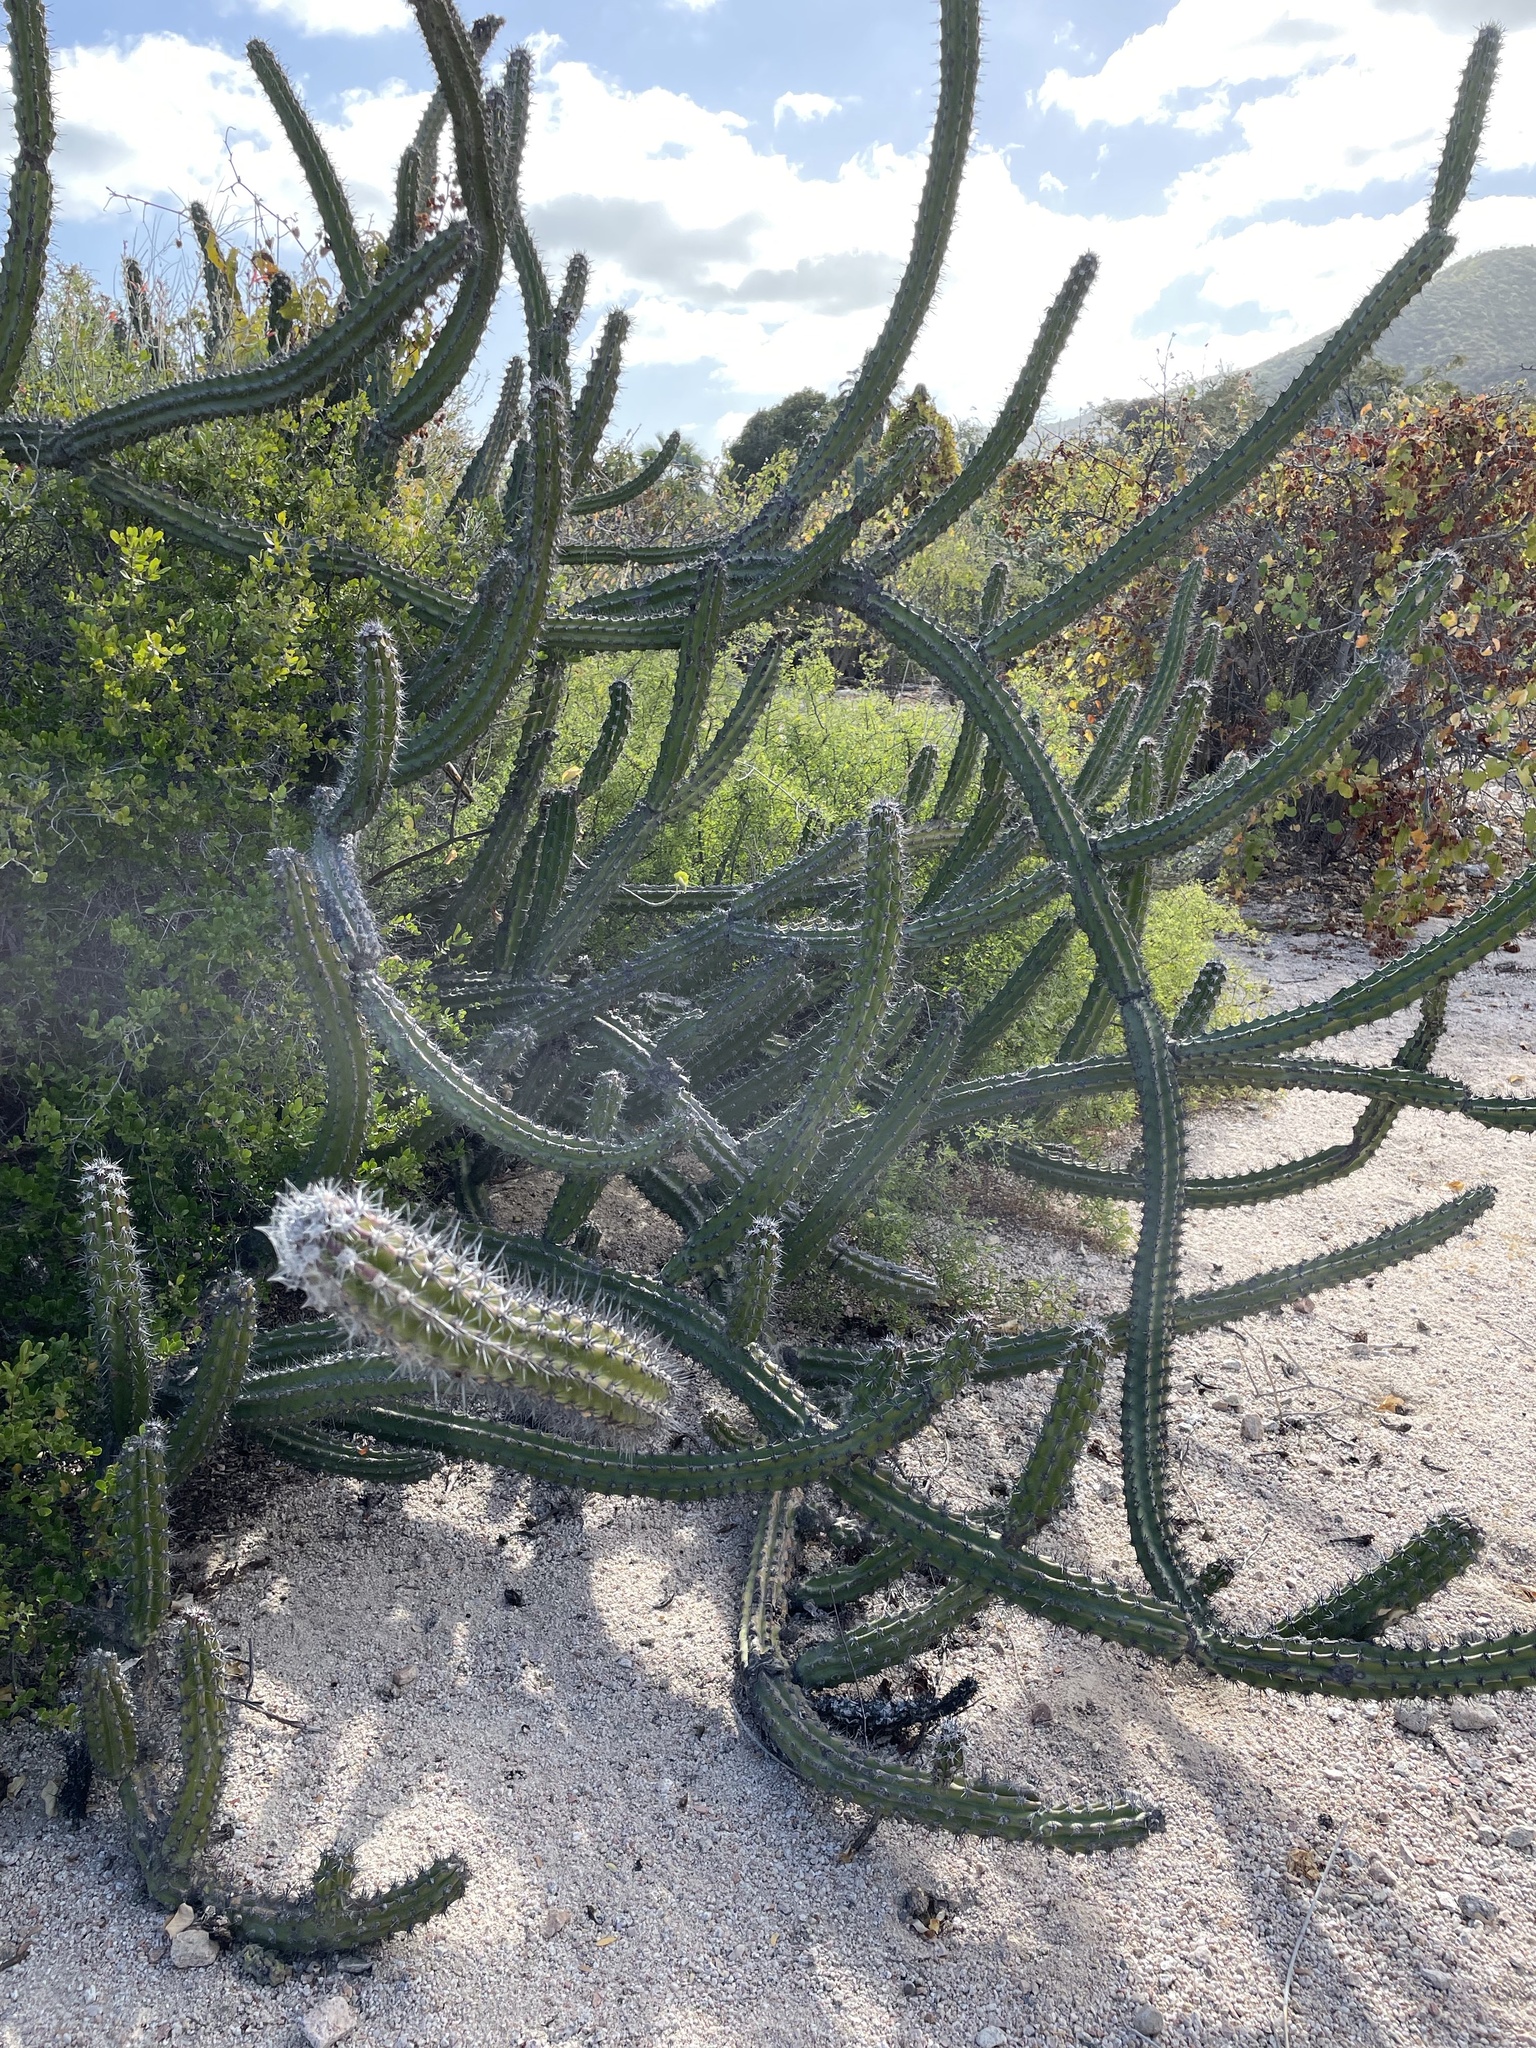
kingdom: Plantae
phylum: Tracheophyta
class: Magnoliopsida
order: Caryophyllales
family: Cactaceae
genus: Stenocereus
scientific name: Stenocereus gummosus
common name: Dagger cactus
